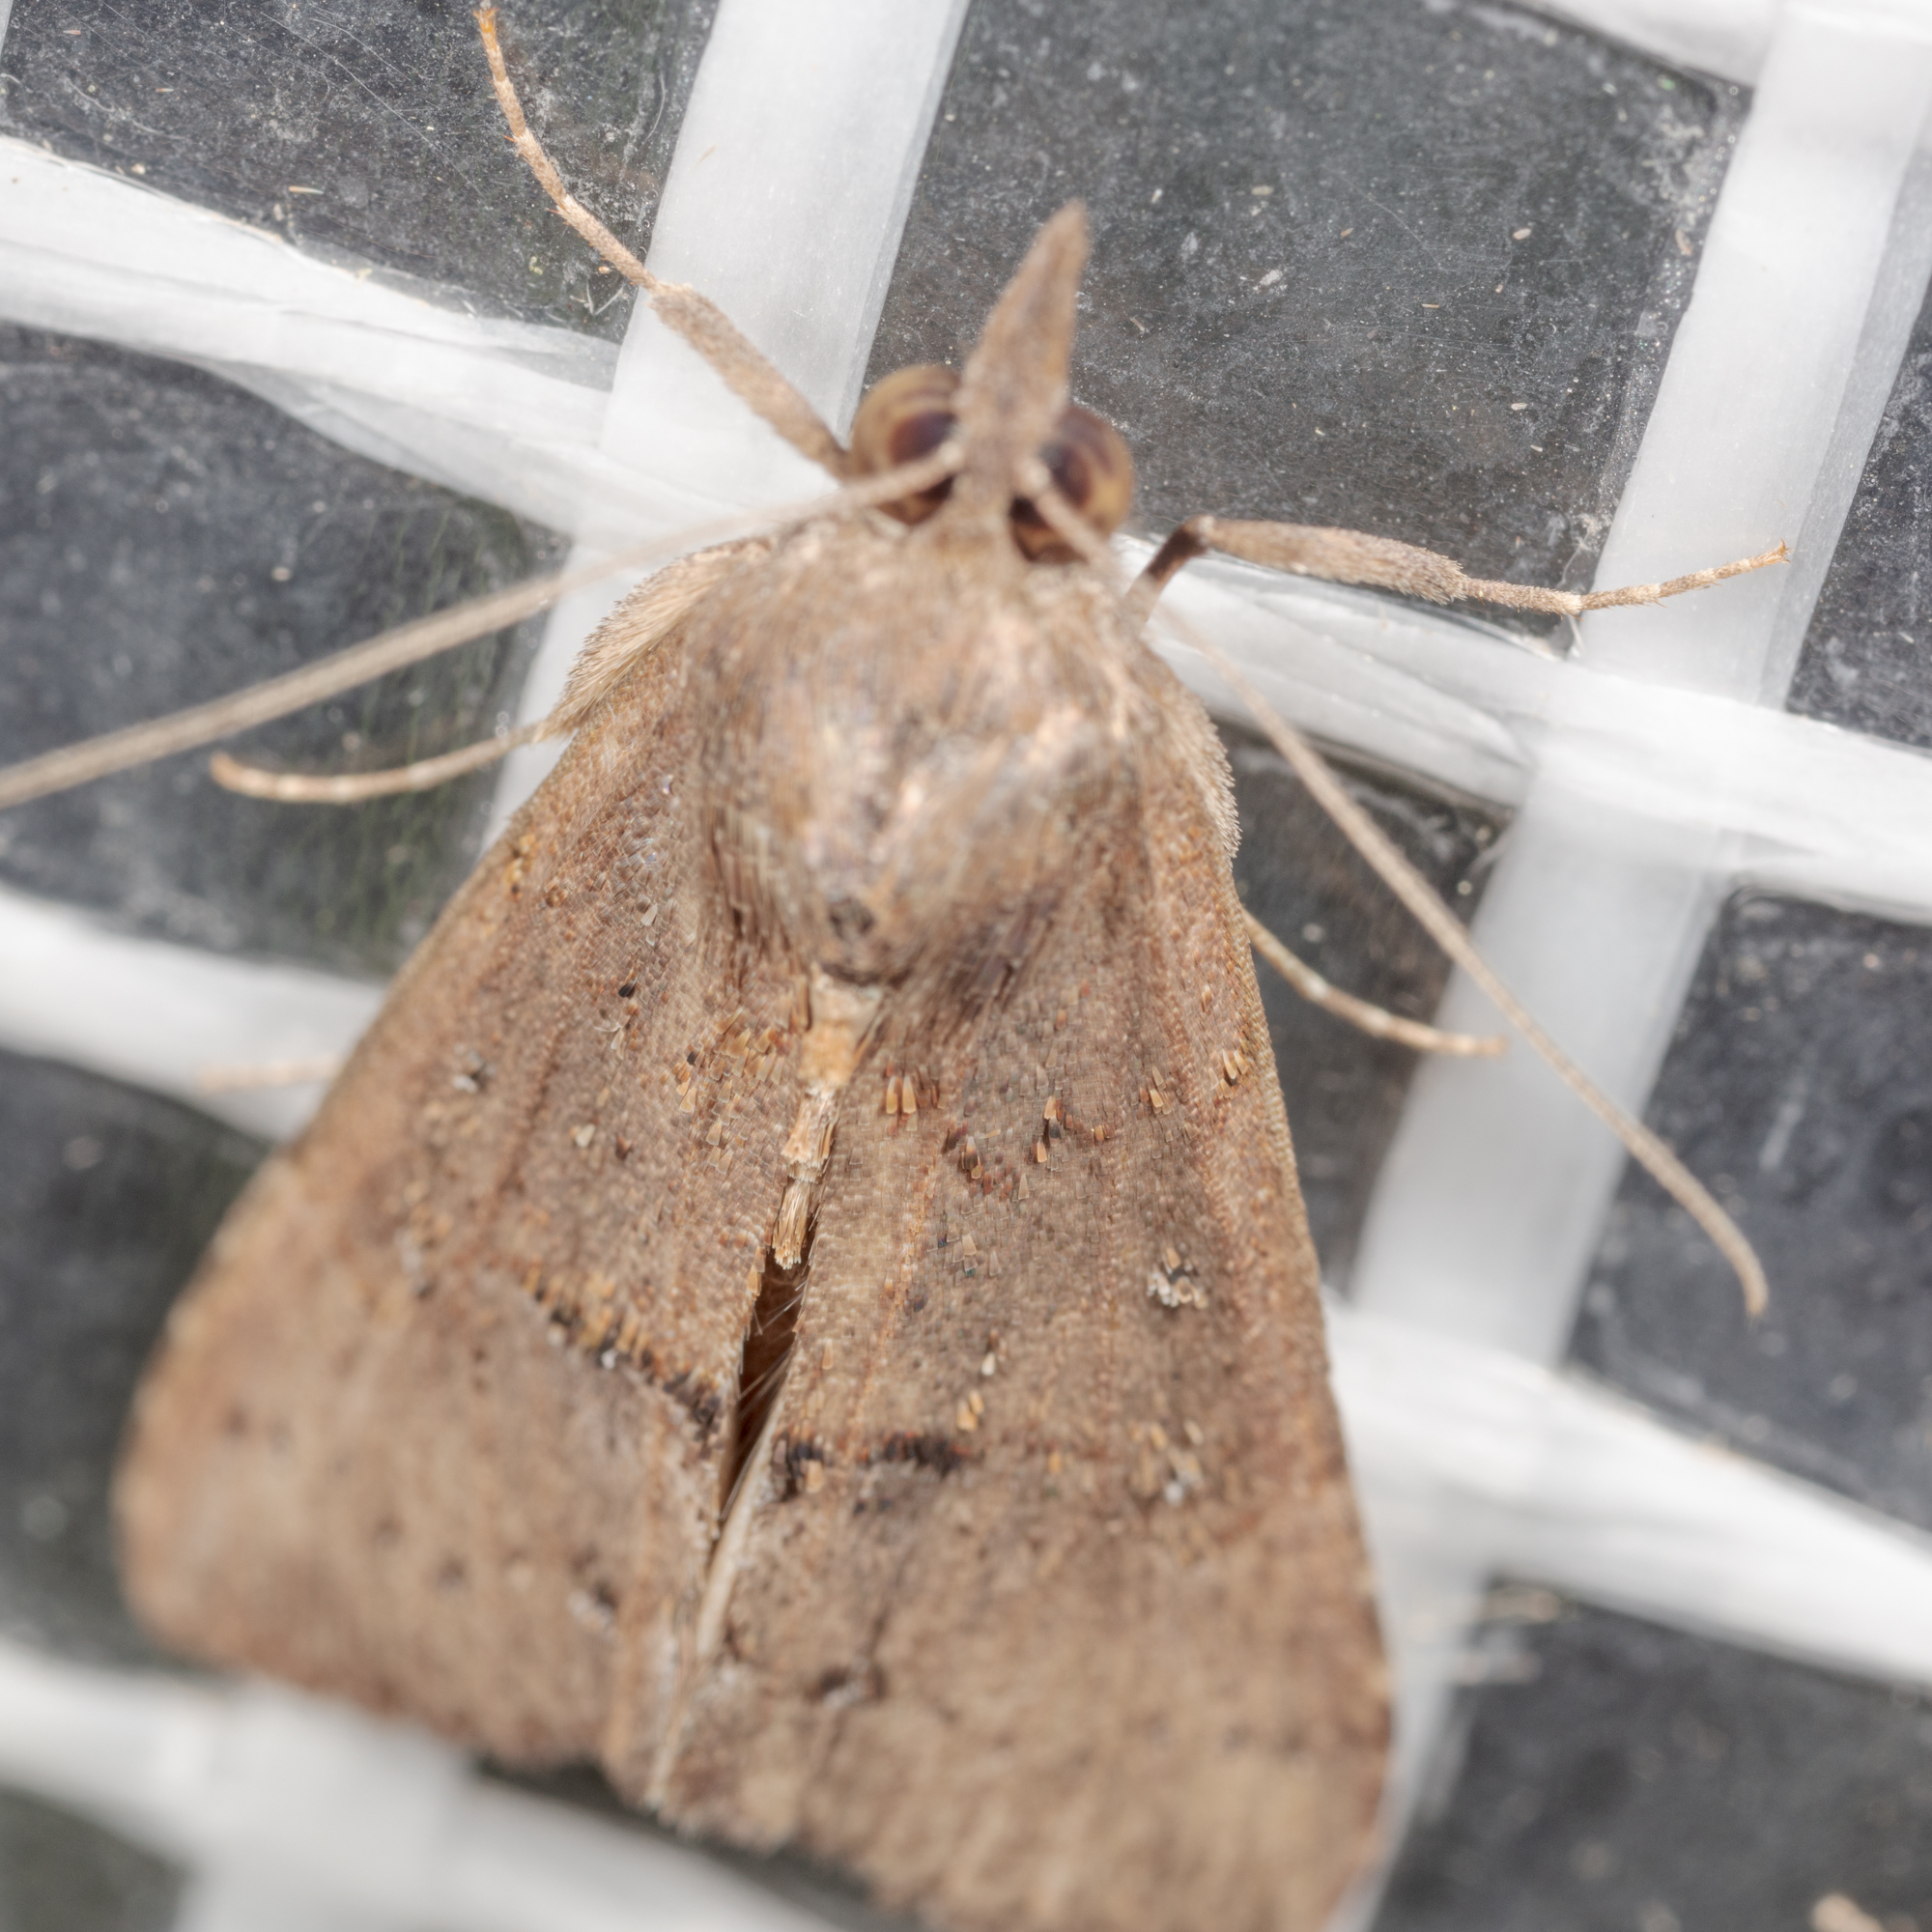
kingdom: Animalia
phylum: Arthropoda
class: Insecta
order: Lepidoptera
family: Erebidae
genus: Hypena
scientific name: Hypena scabra
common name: Green cloverworm
